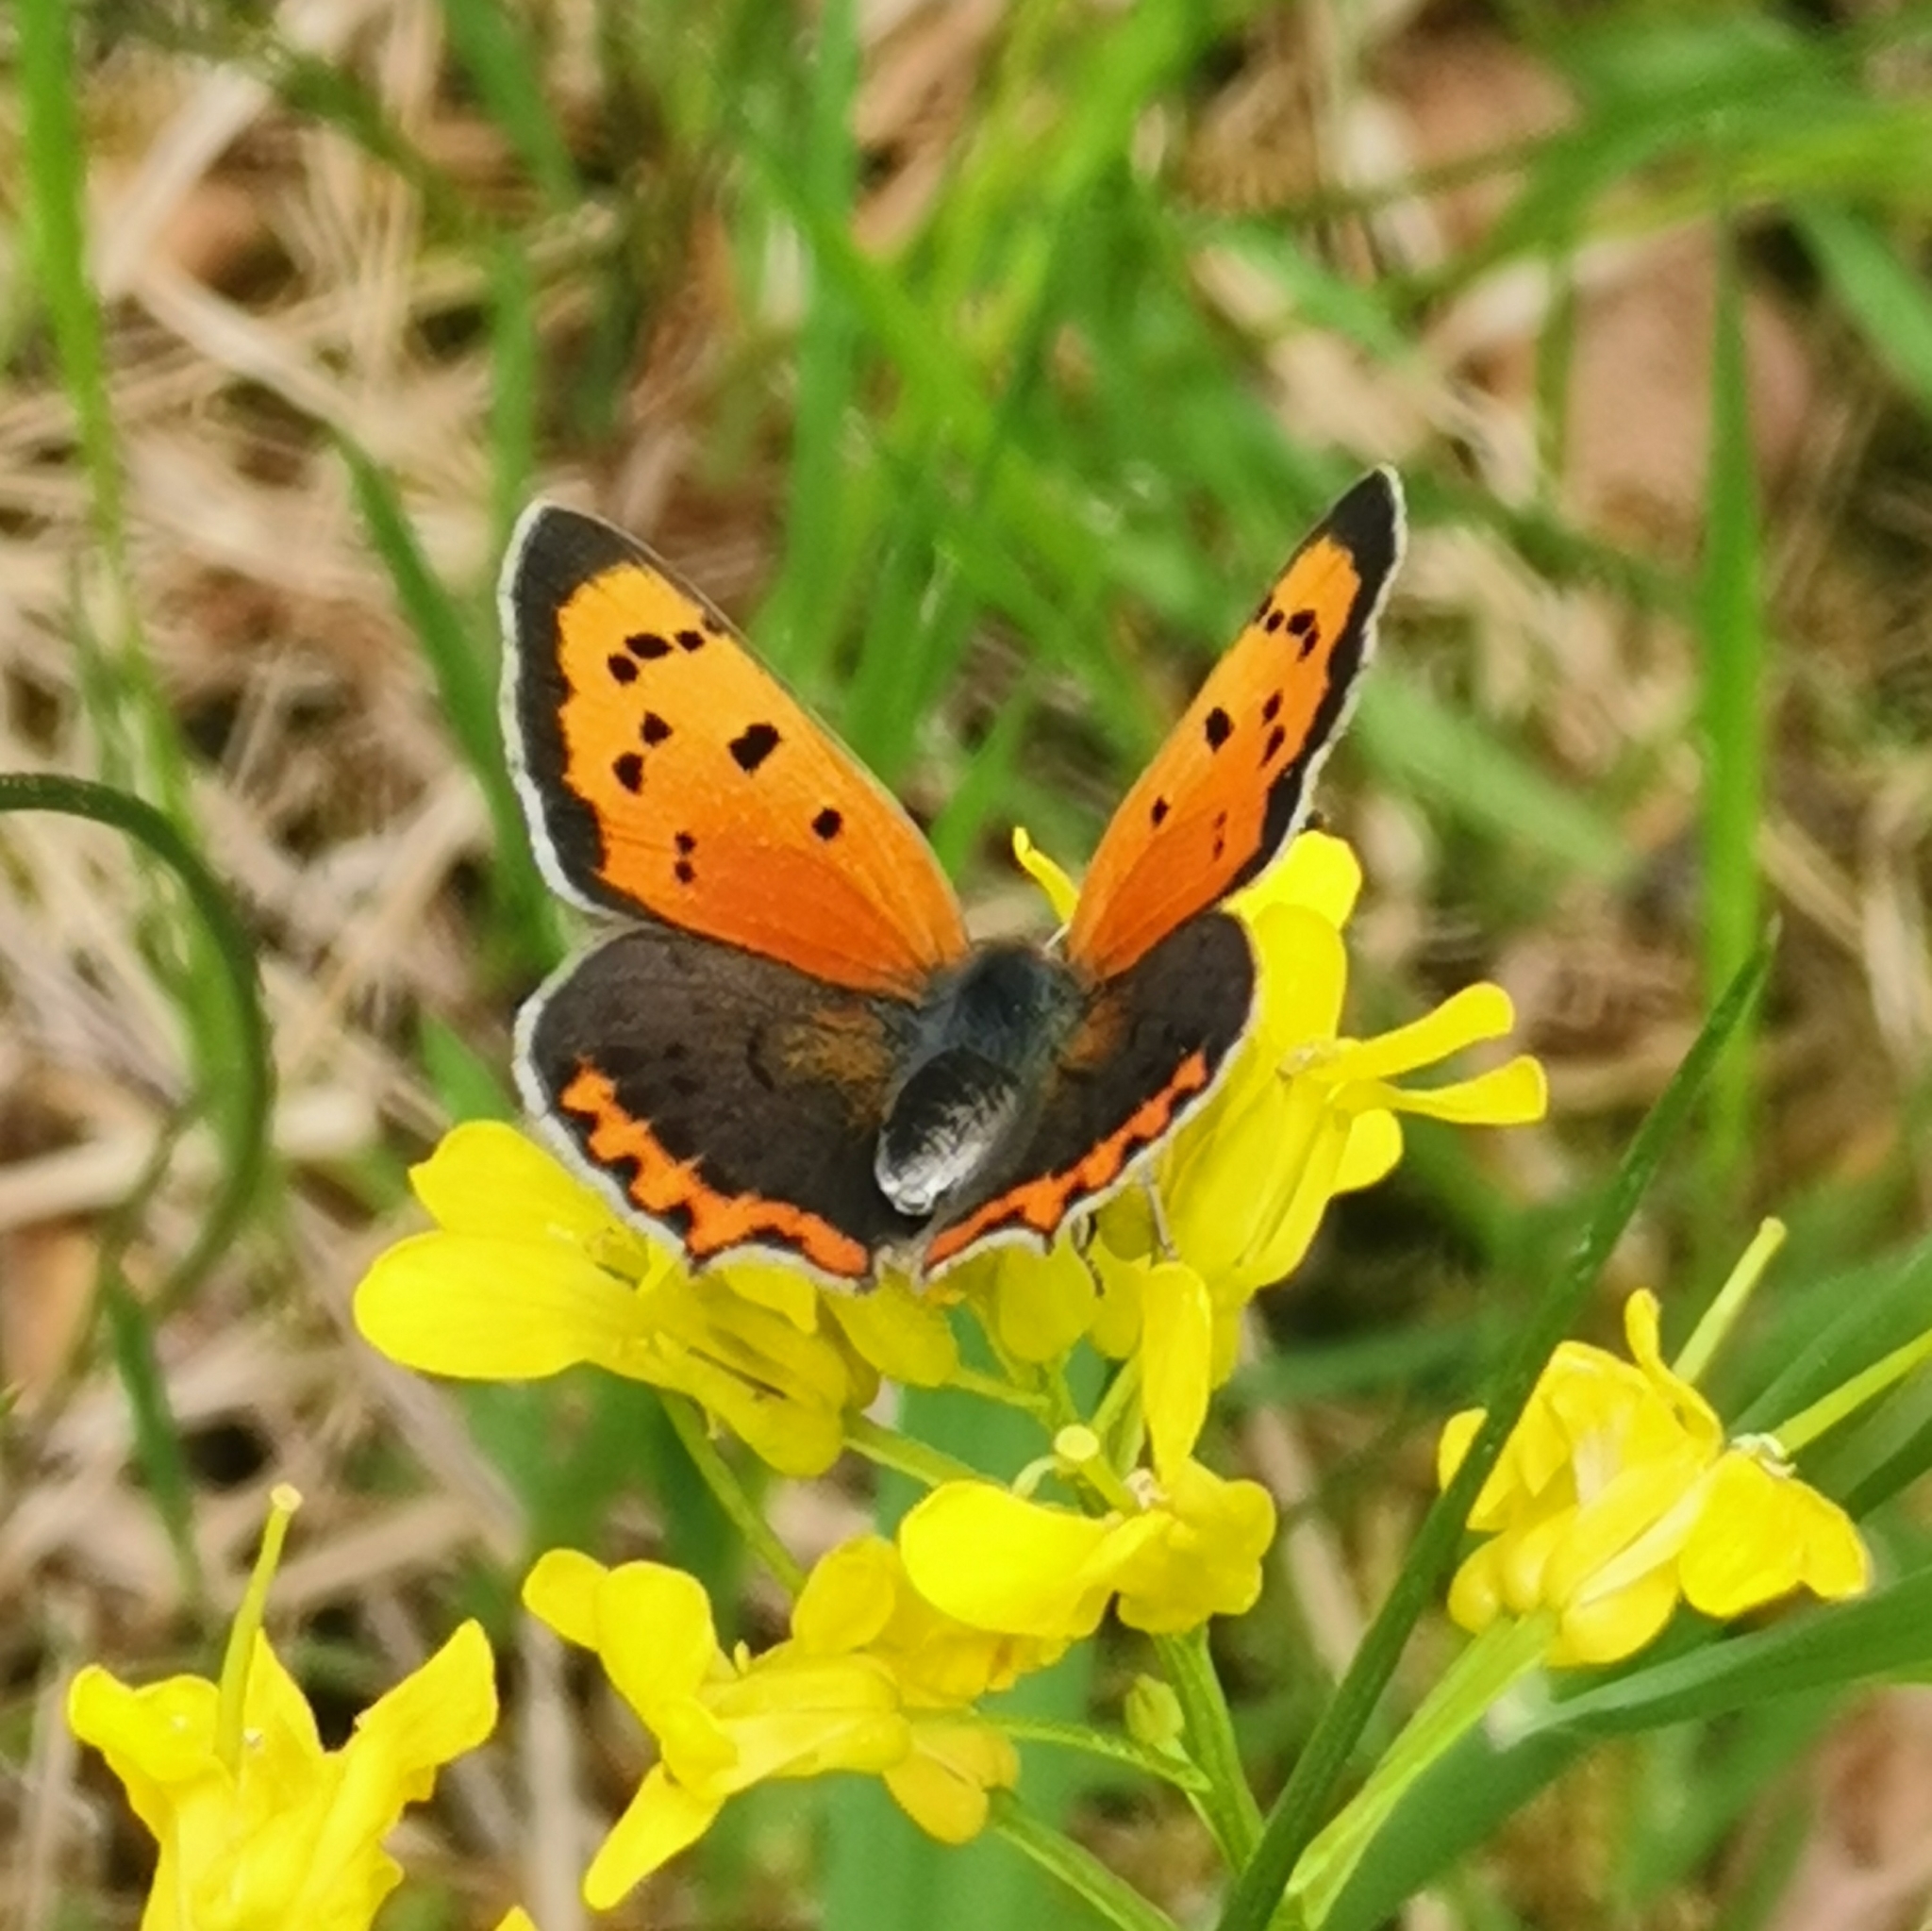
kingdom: Animalia
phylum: Arthropoda
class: Insecta
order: Lepidoptera
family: Lycaenidae
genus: Lycaena
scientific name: Lycaena phlaeas
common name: Small copper
